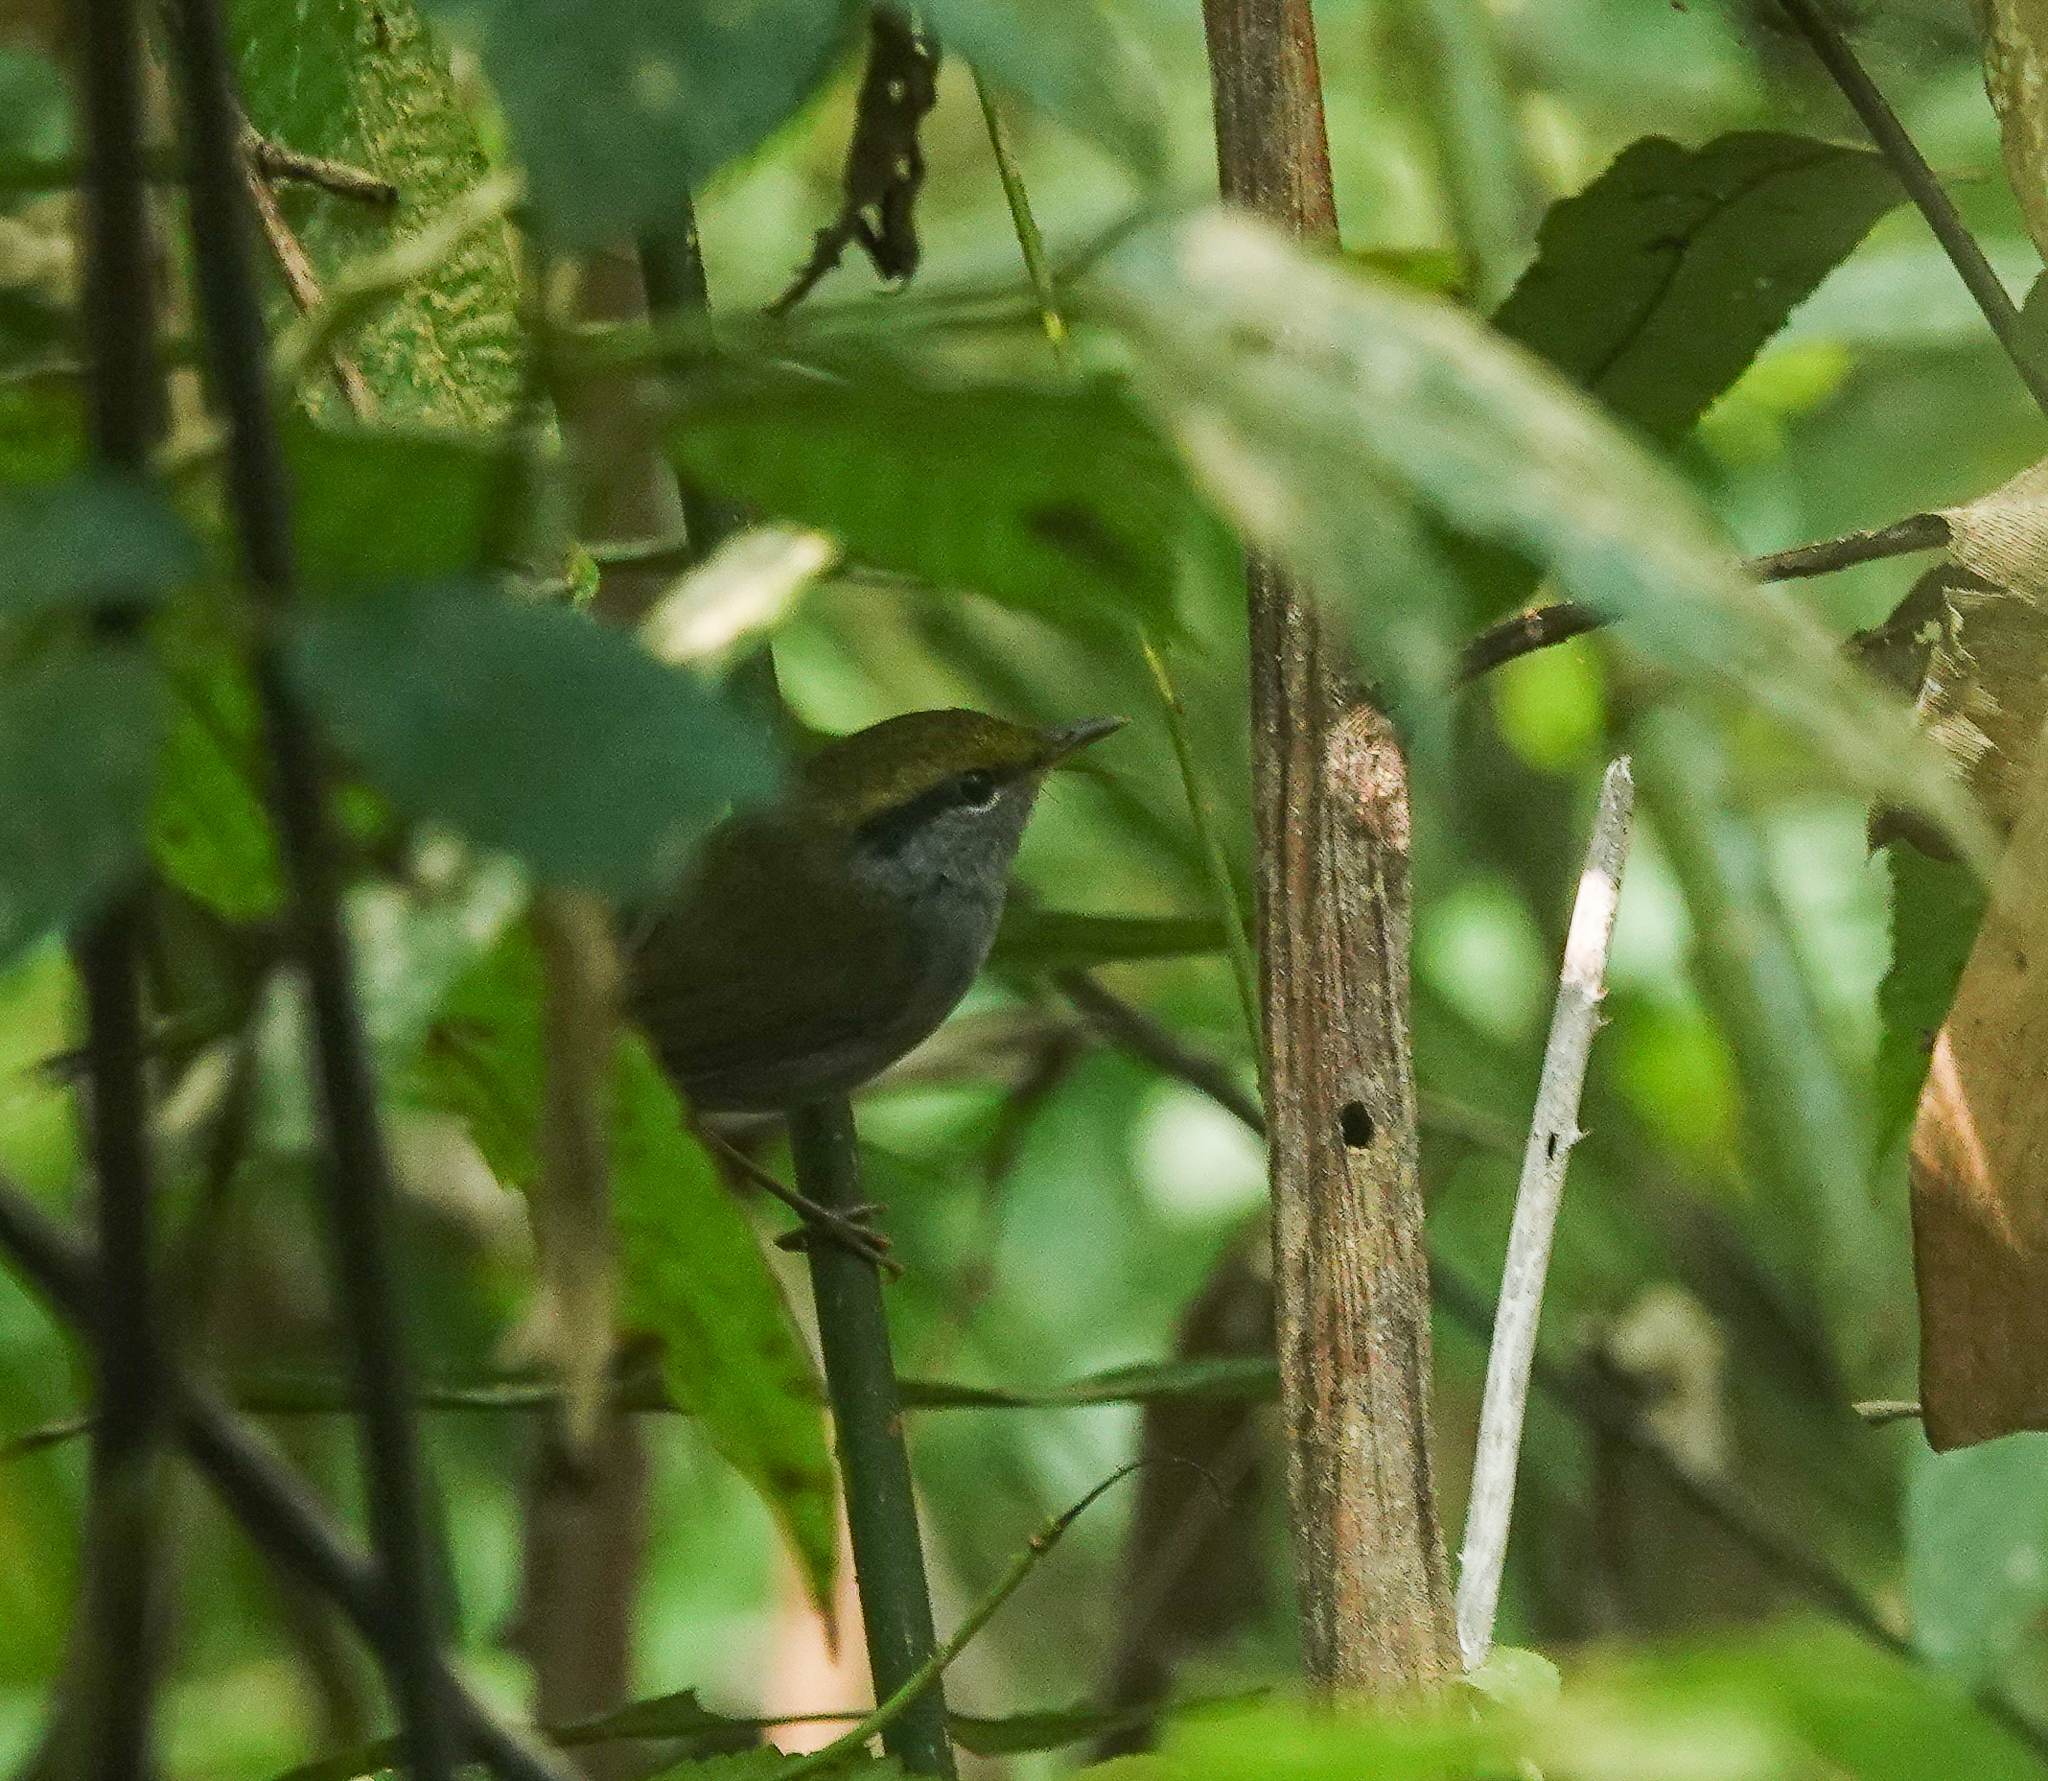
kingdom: Animalia
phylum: Chordata
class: Aves
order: Passeriformes
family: Cettiidae
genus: Tesia
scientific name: Tesia cyaniventer
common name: Grey-bellied tesia
